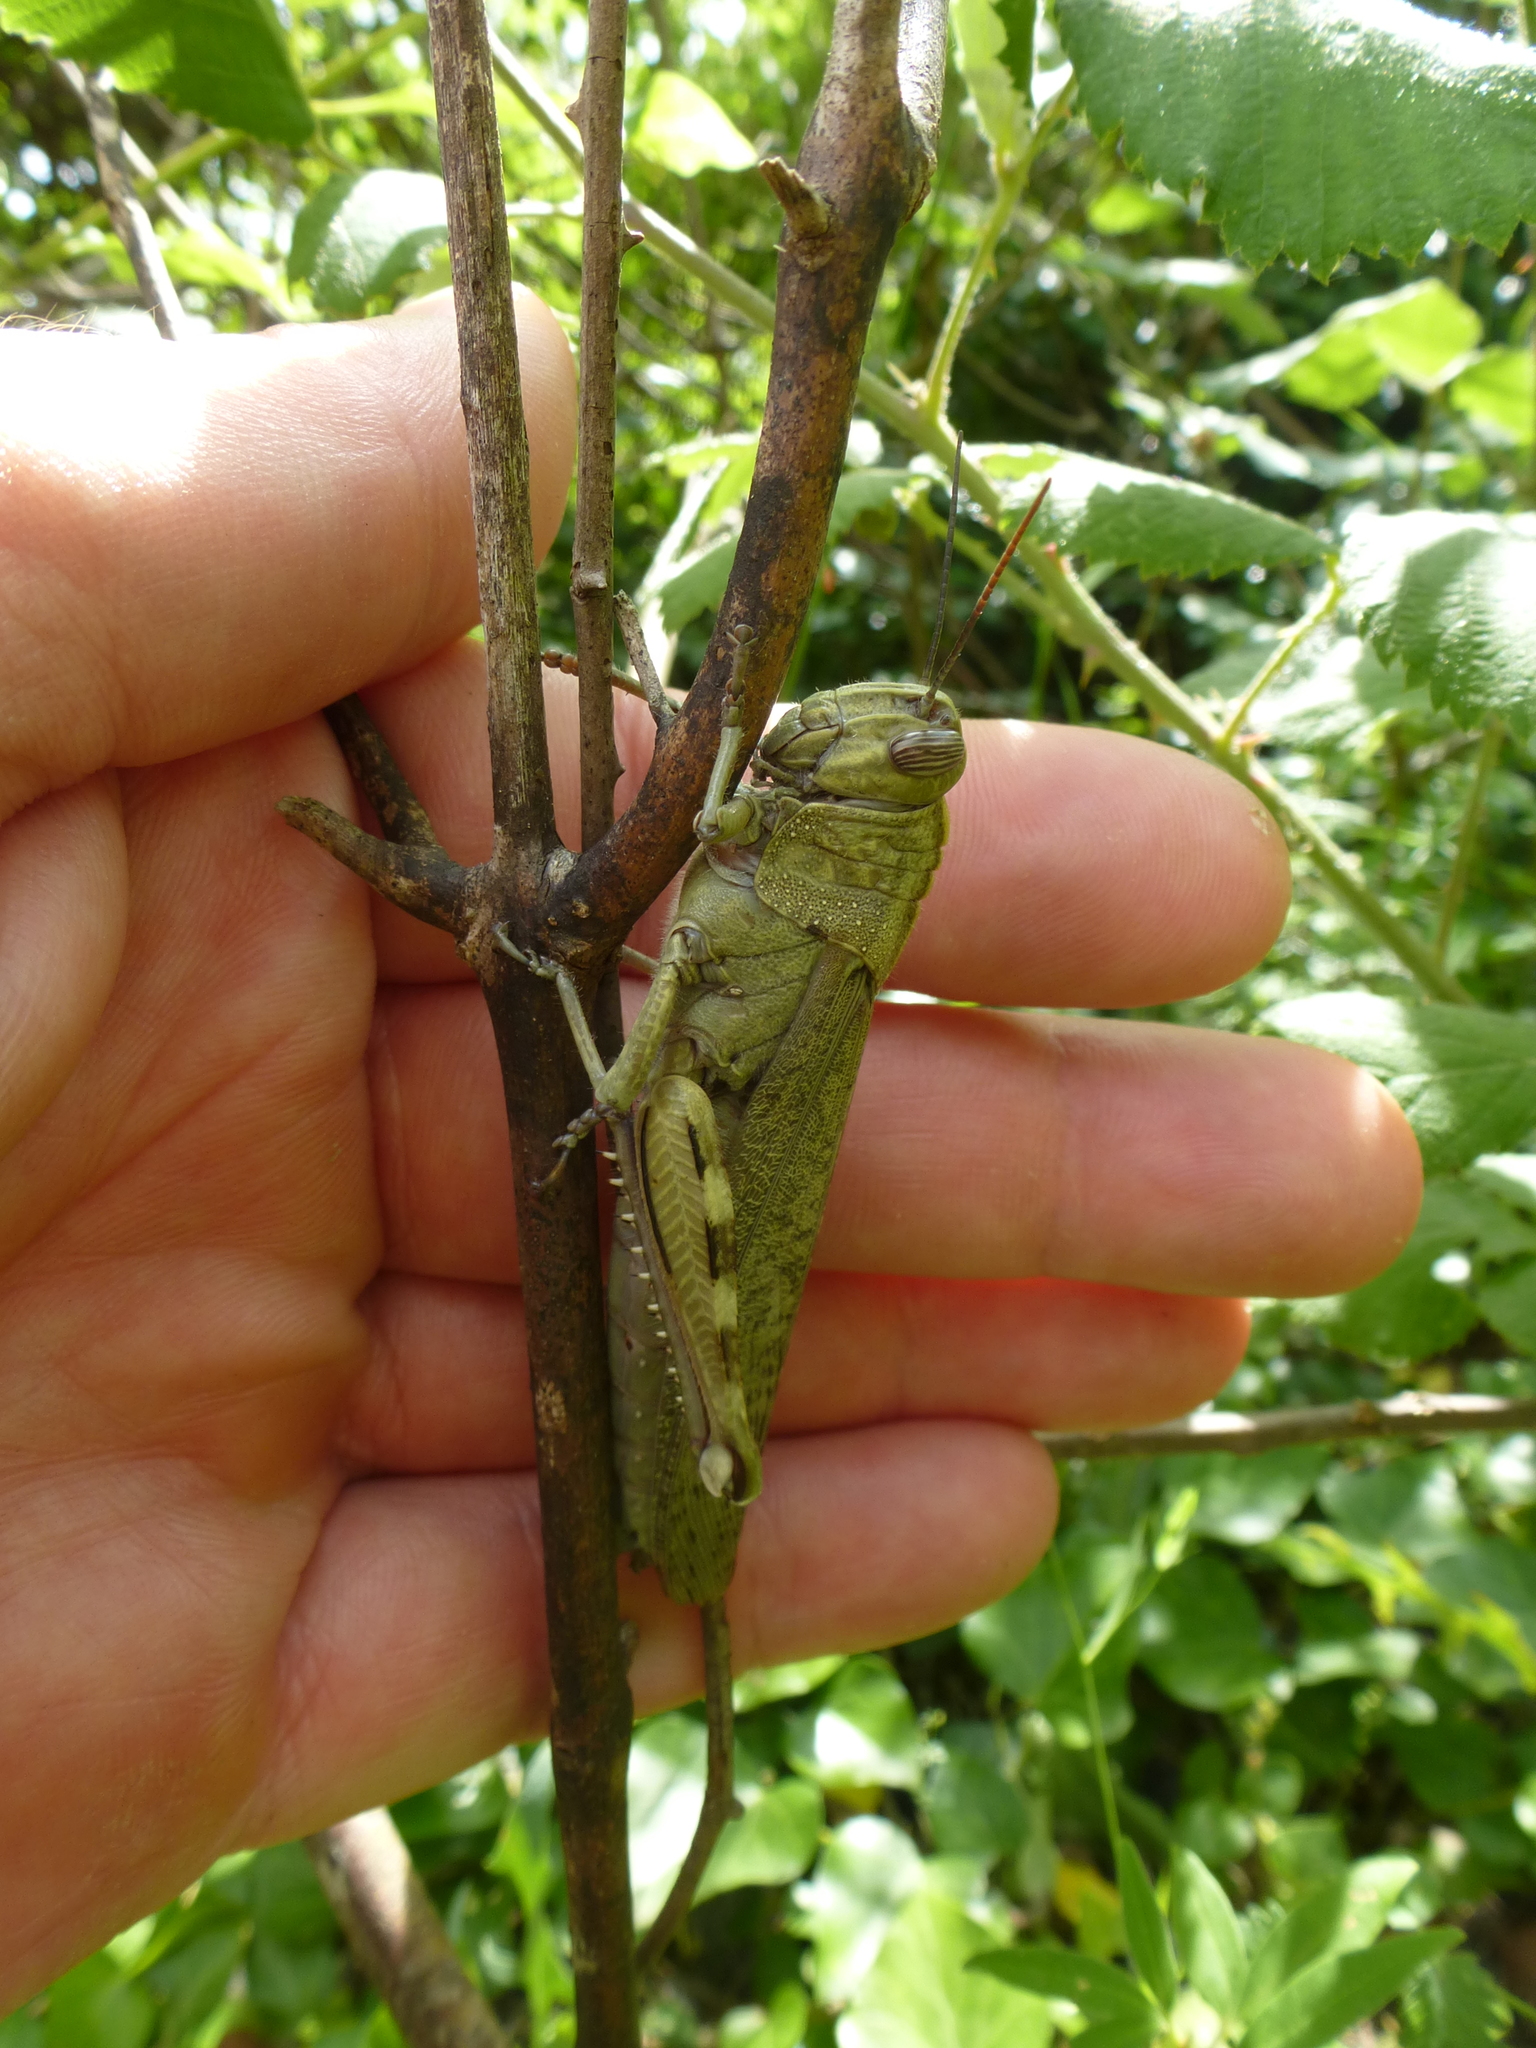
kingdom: Animalia
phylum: Arthropoda
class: Insecta
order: Orthoptera
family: Acrididae
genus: Anacridium
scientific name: Anacridium aegyptium
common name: Egyptian grasshopper
